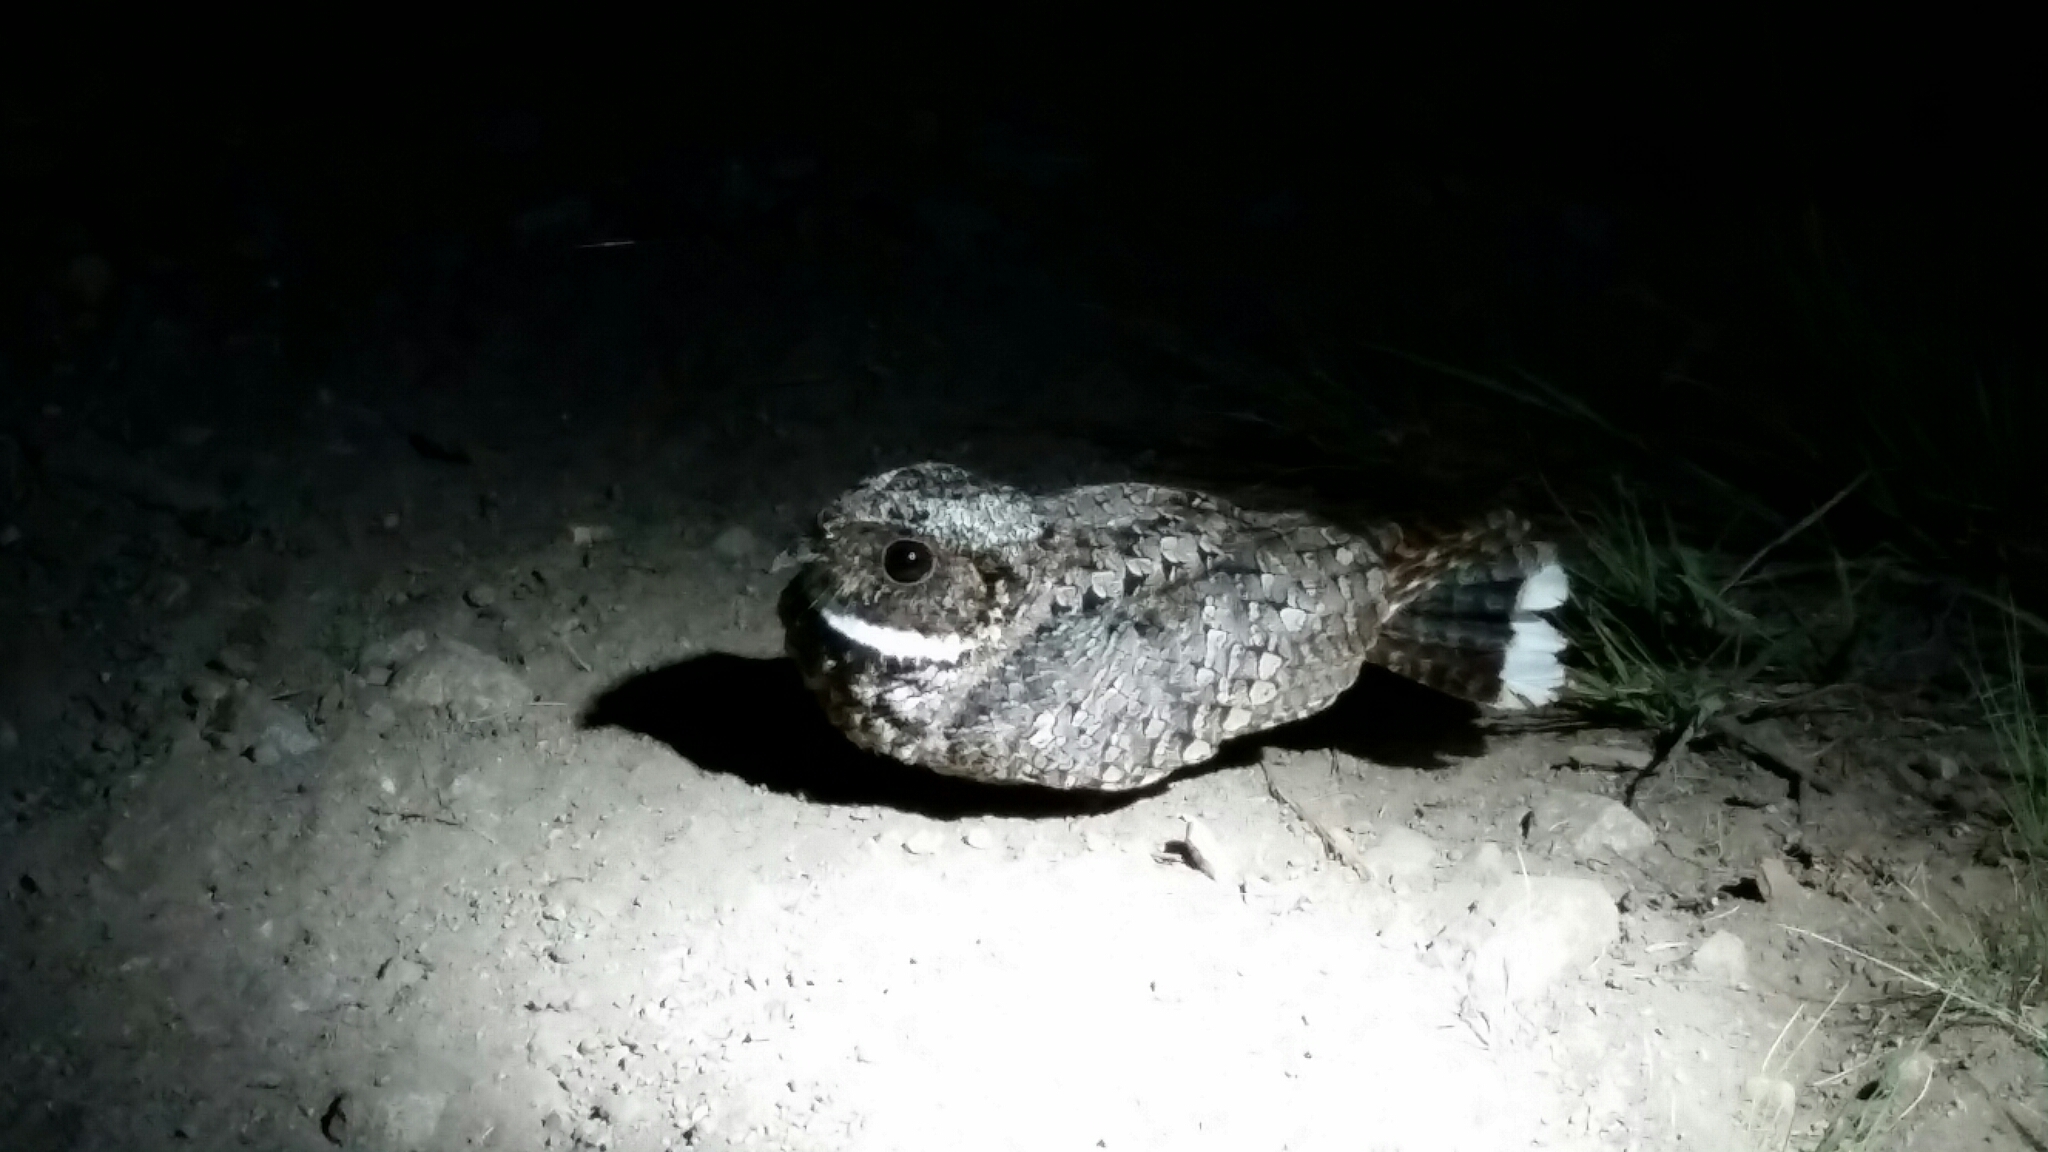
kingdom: Animalia
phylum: Chordata
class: Aves
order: Caprimulgiformes
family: Caprimulgidae
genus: Phalaenoptilus
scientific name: Phalaenoptilus nuttallii
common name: Common poorwill
